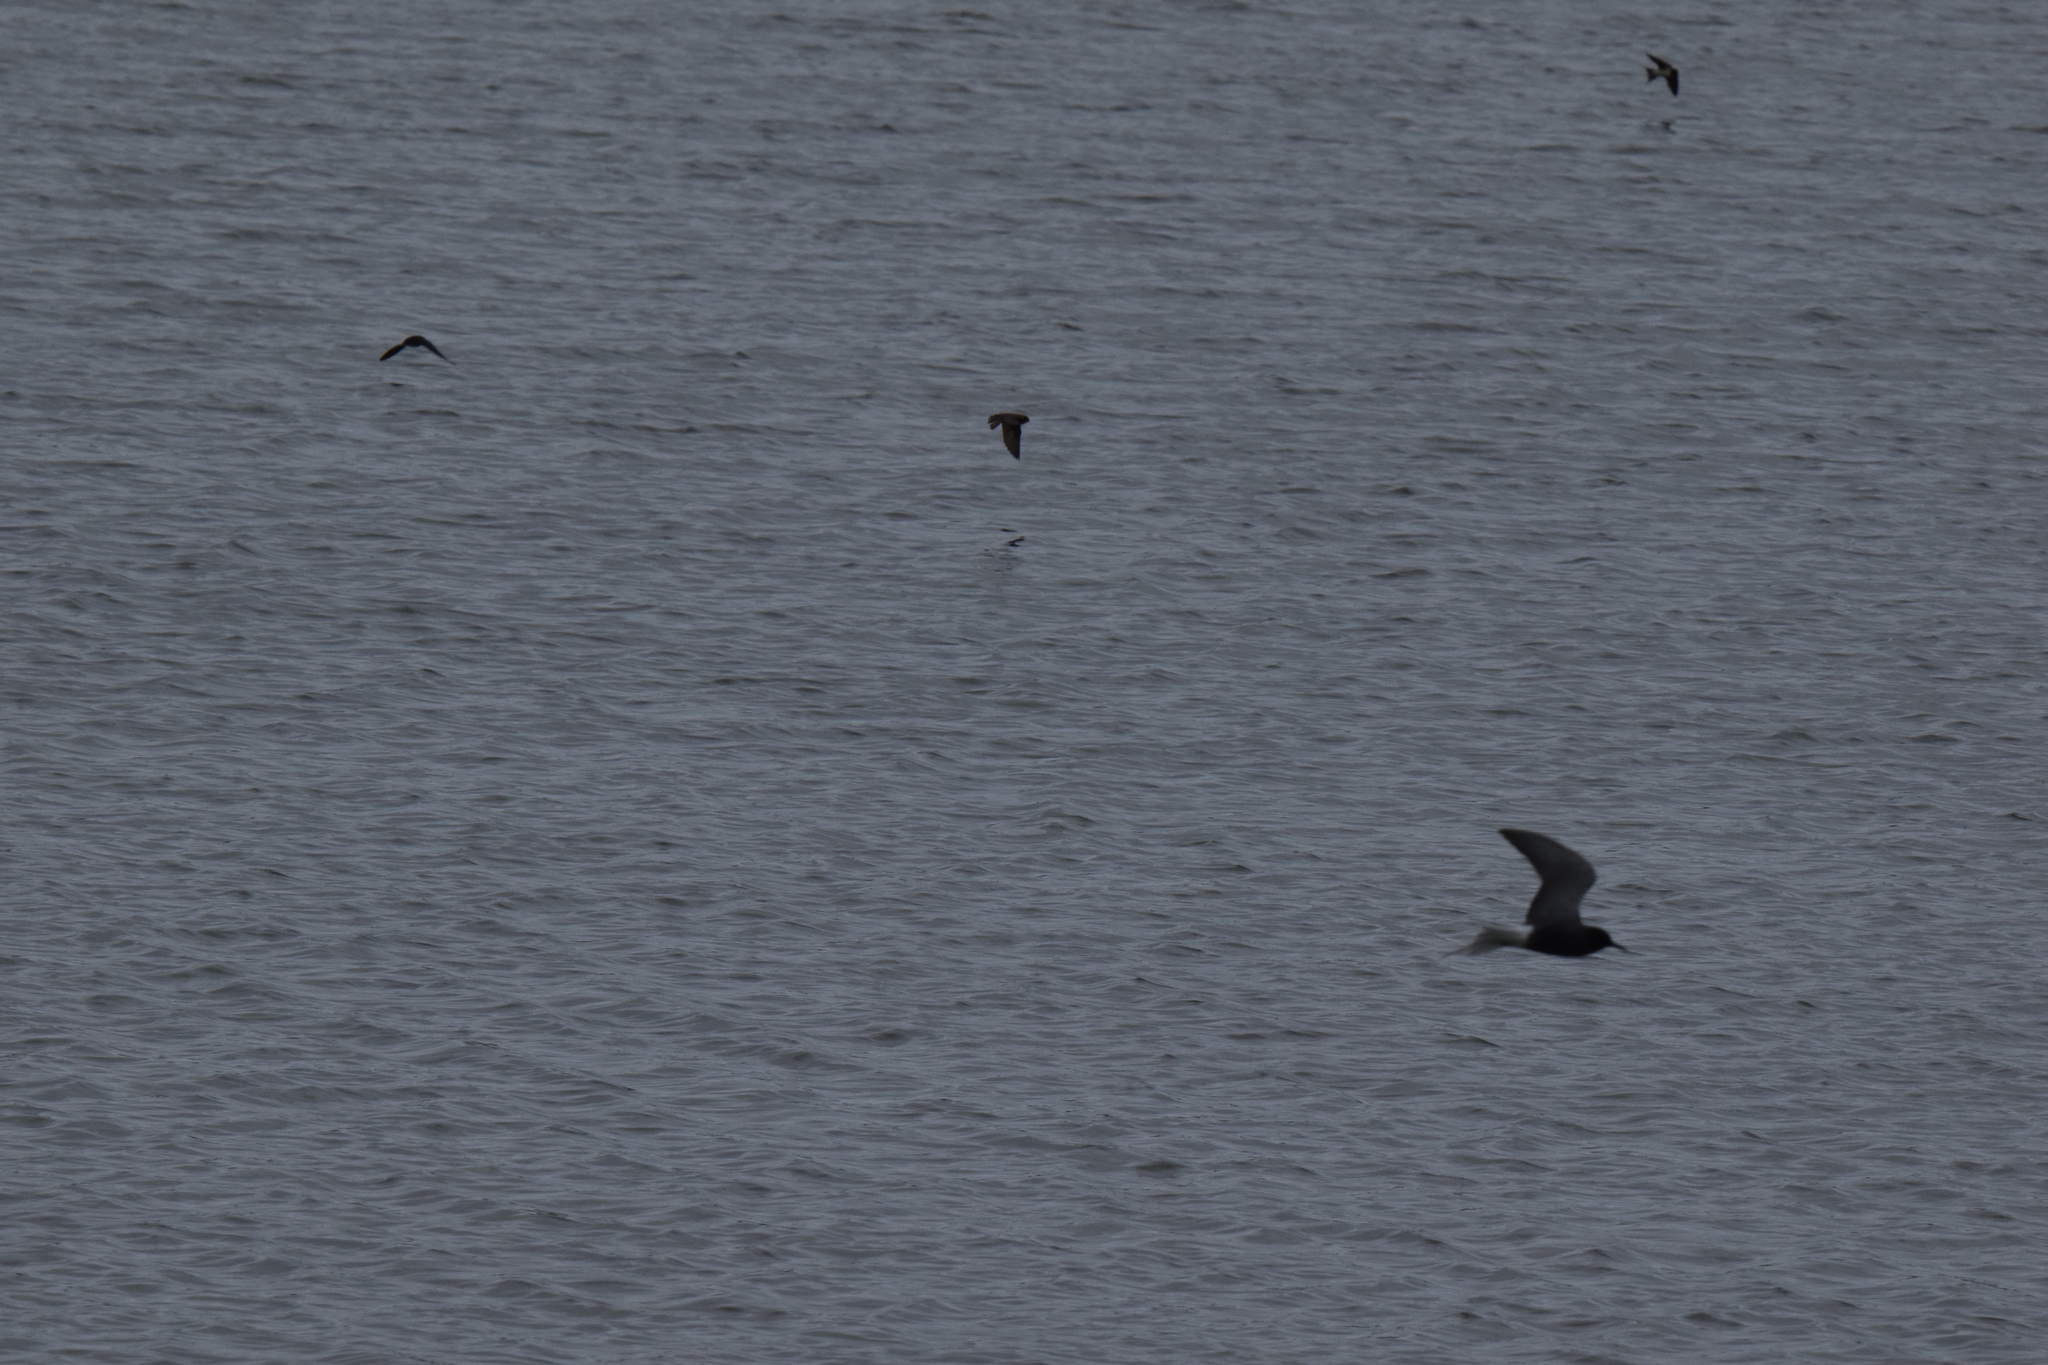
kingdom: Animalia
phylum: Chordata
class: Aves
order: Charadriiformes
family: Laridae
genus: Chlidonias
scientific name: Chlidonias niger
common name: Black tern
